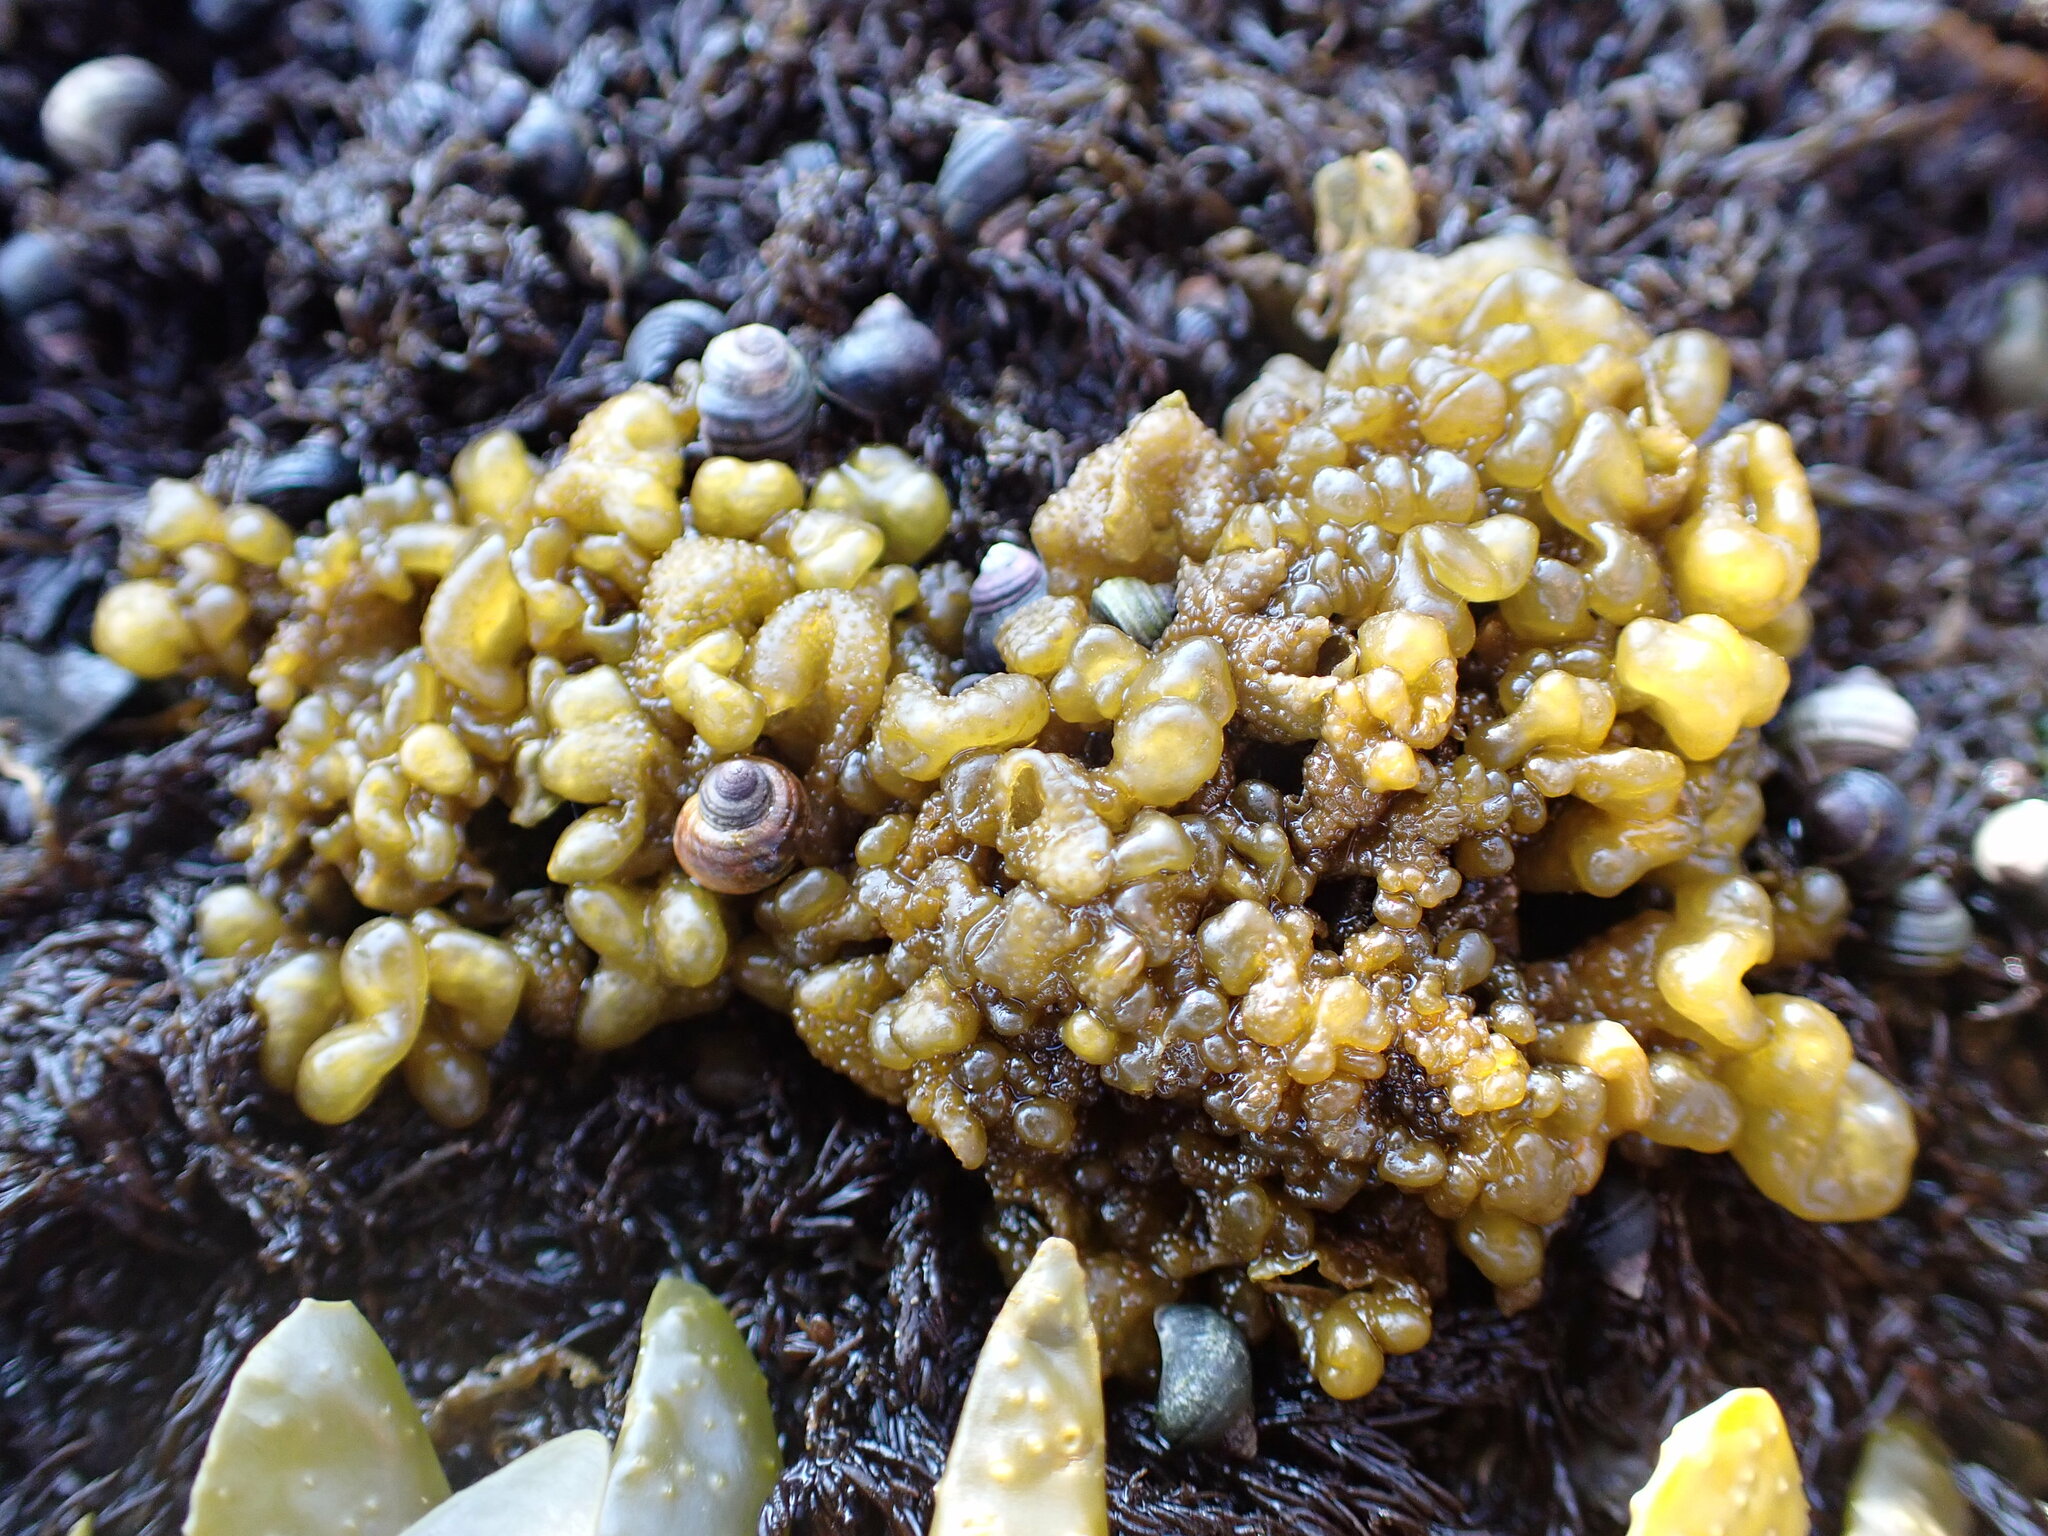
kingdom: Chromista
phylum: Ochrophyta
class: Phaeophyceae
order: Ectocarpales
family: Chordariaceae
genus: Leathesia
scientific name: Leathesia marina
